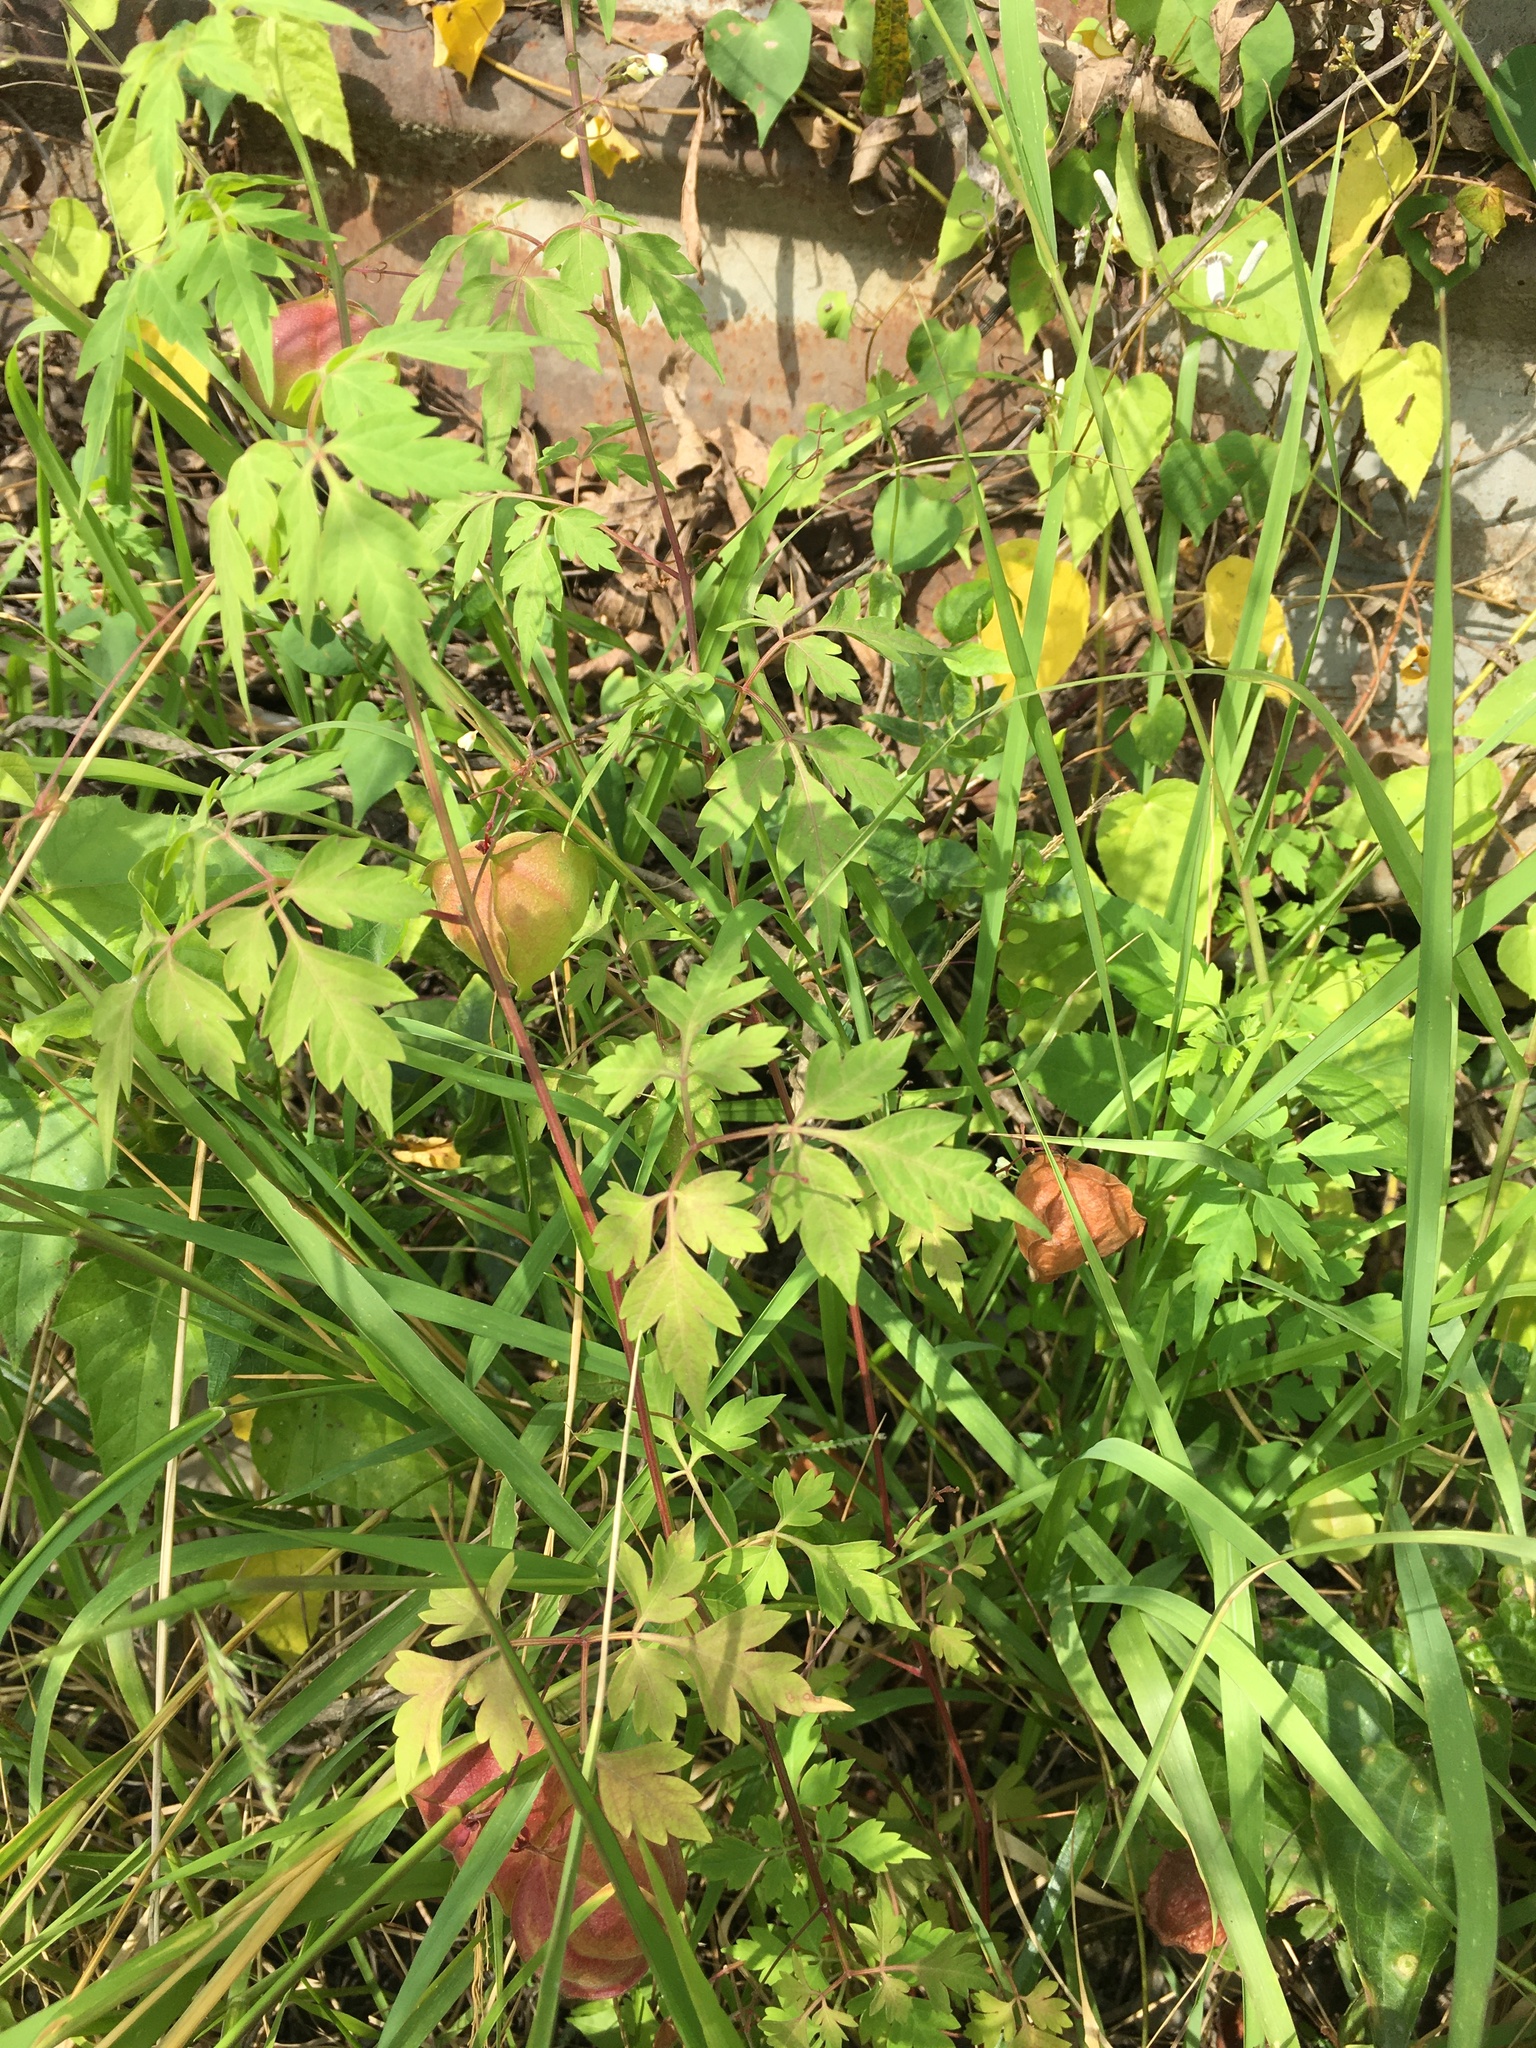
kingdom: Plantae
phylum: Tracheophyta
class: Magnoliopsida
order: Sapindales
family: Sapindaceae
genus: Cardiospermum
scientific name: Cardiospermum halicacabum
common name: Balloon vine
